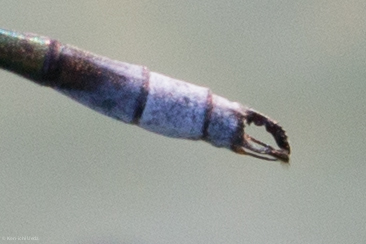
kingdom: Animalia
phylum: Arthropoda
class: Insecta
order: Odonata
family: Lestidae
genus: Lestes
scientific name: Lestes vigilax
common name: Swamp spreadwing
